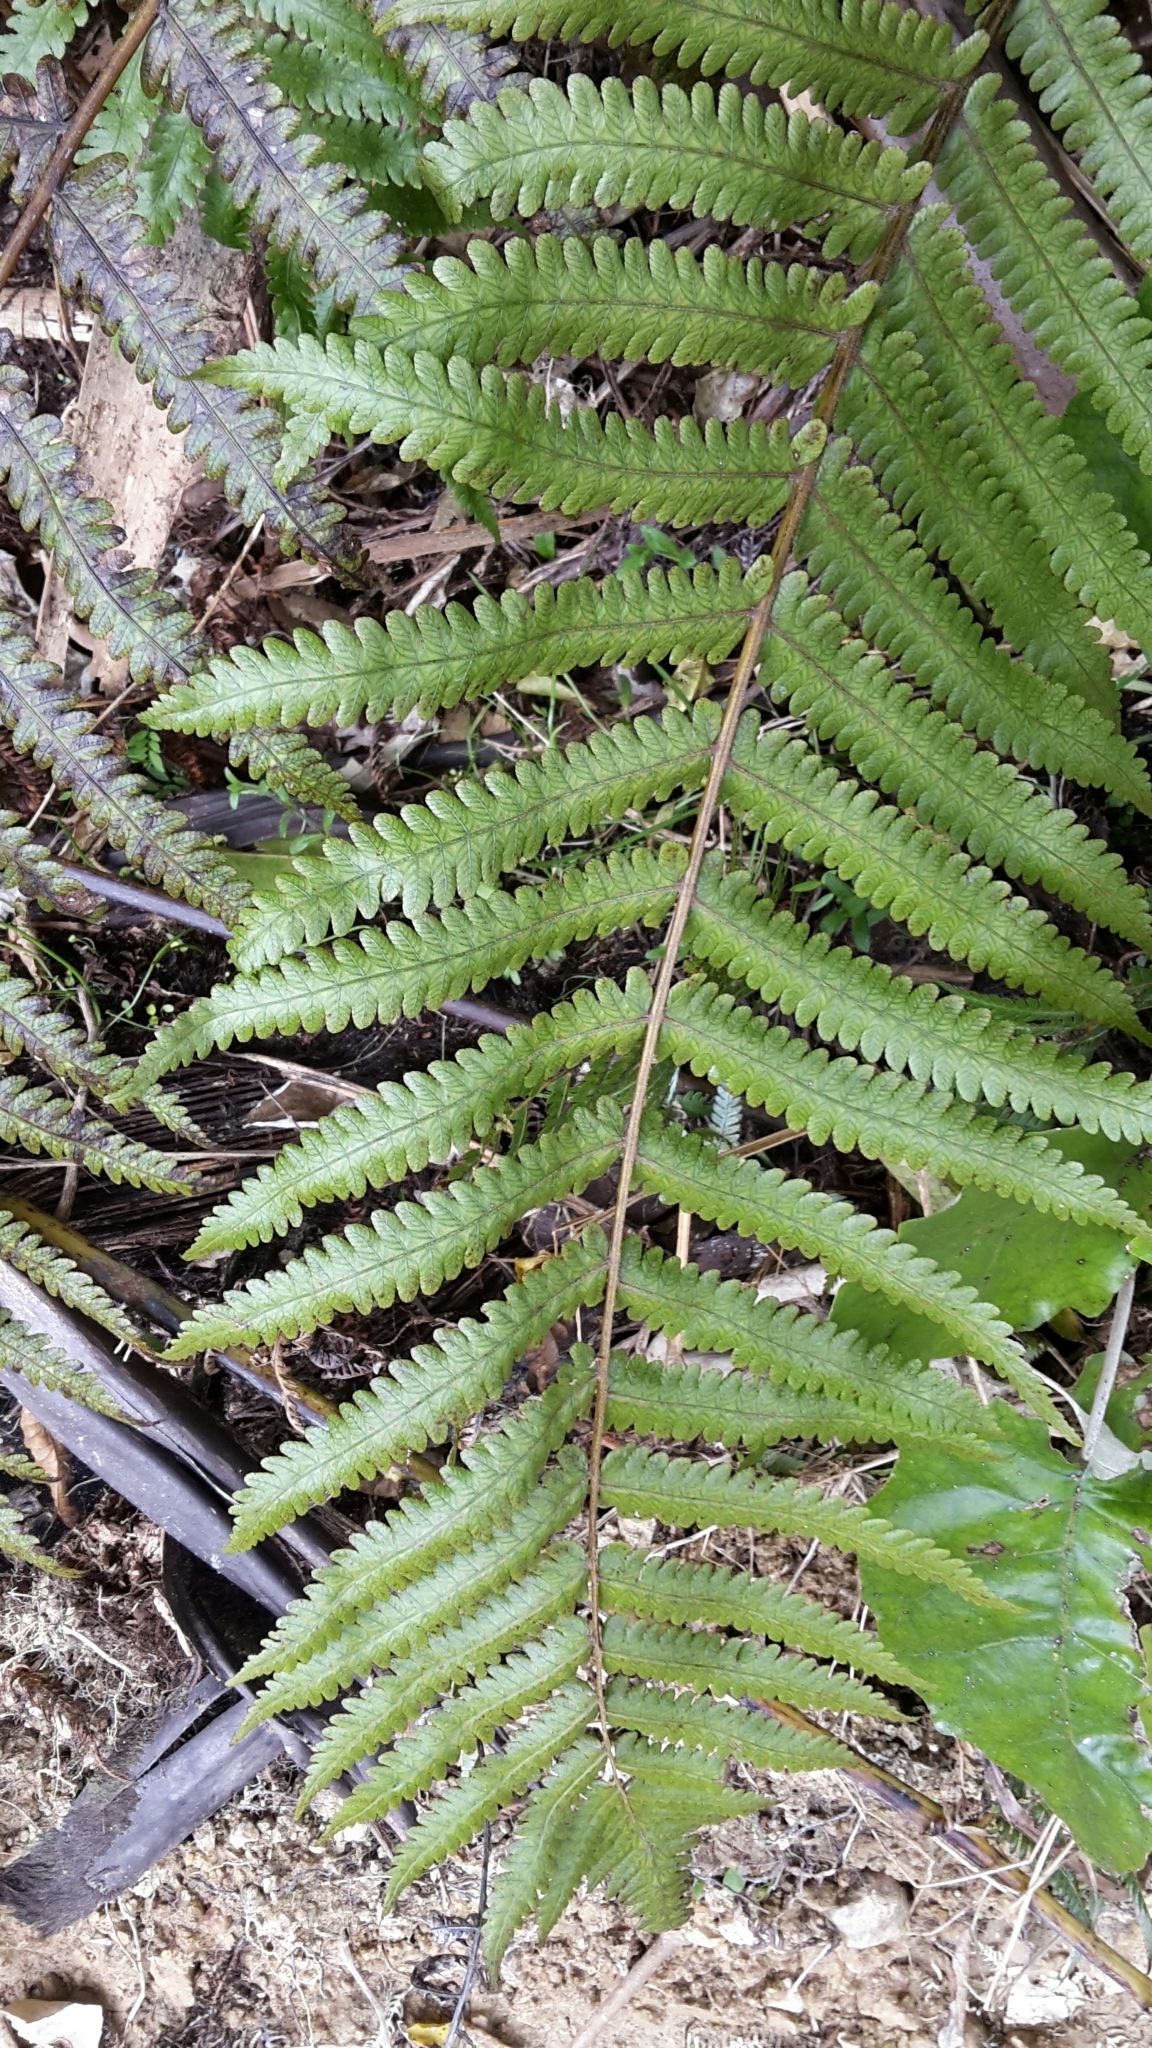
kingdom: Plantae
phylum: Tracheophyta
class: Polypodiopsida
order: Polypodiales
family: Thelypteridaceae
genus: Pakau
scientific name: Pakau pennigera
